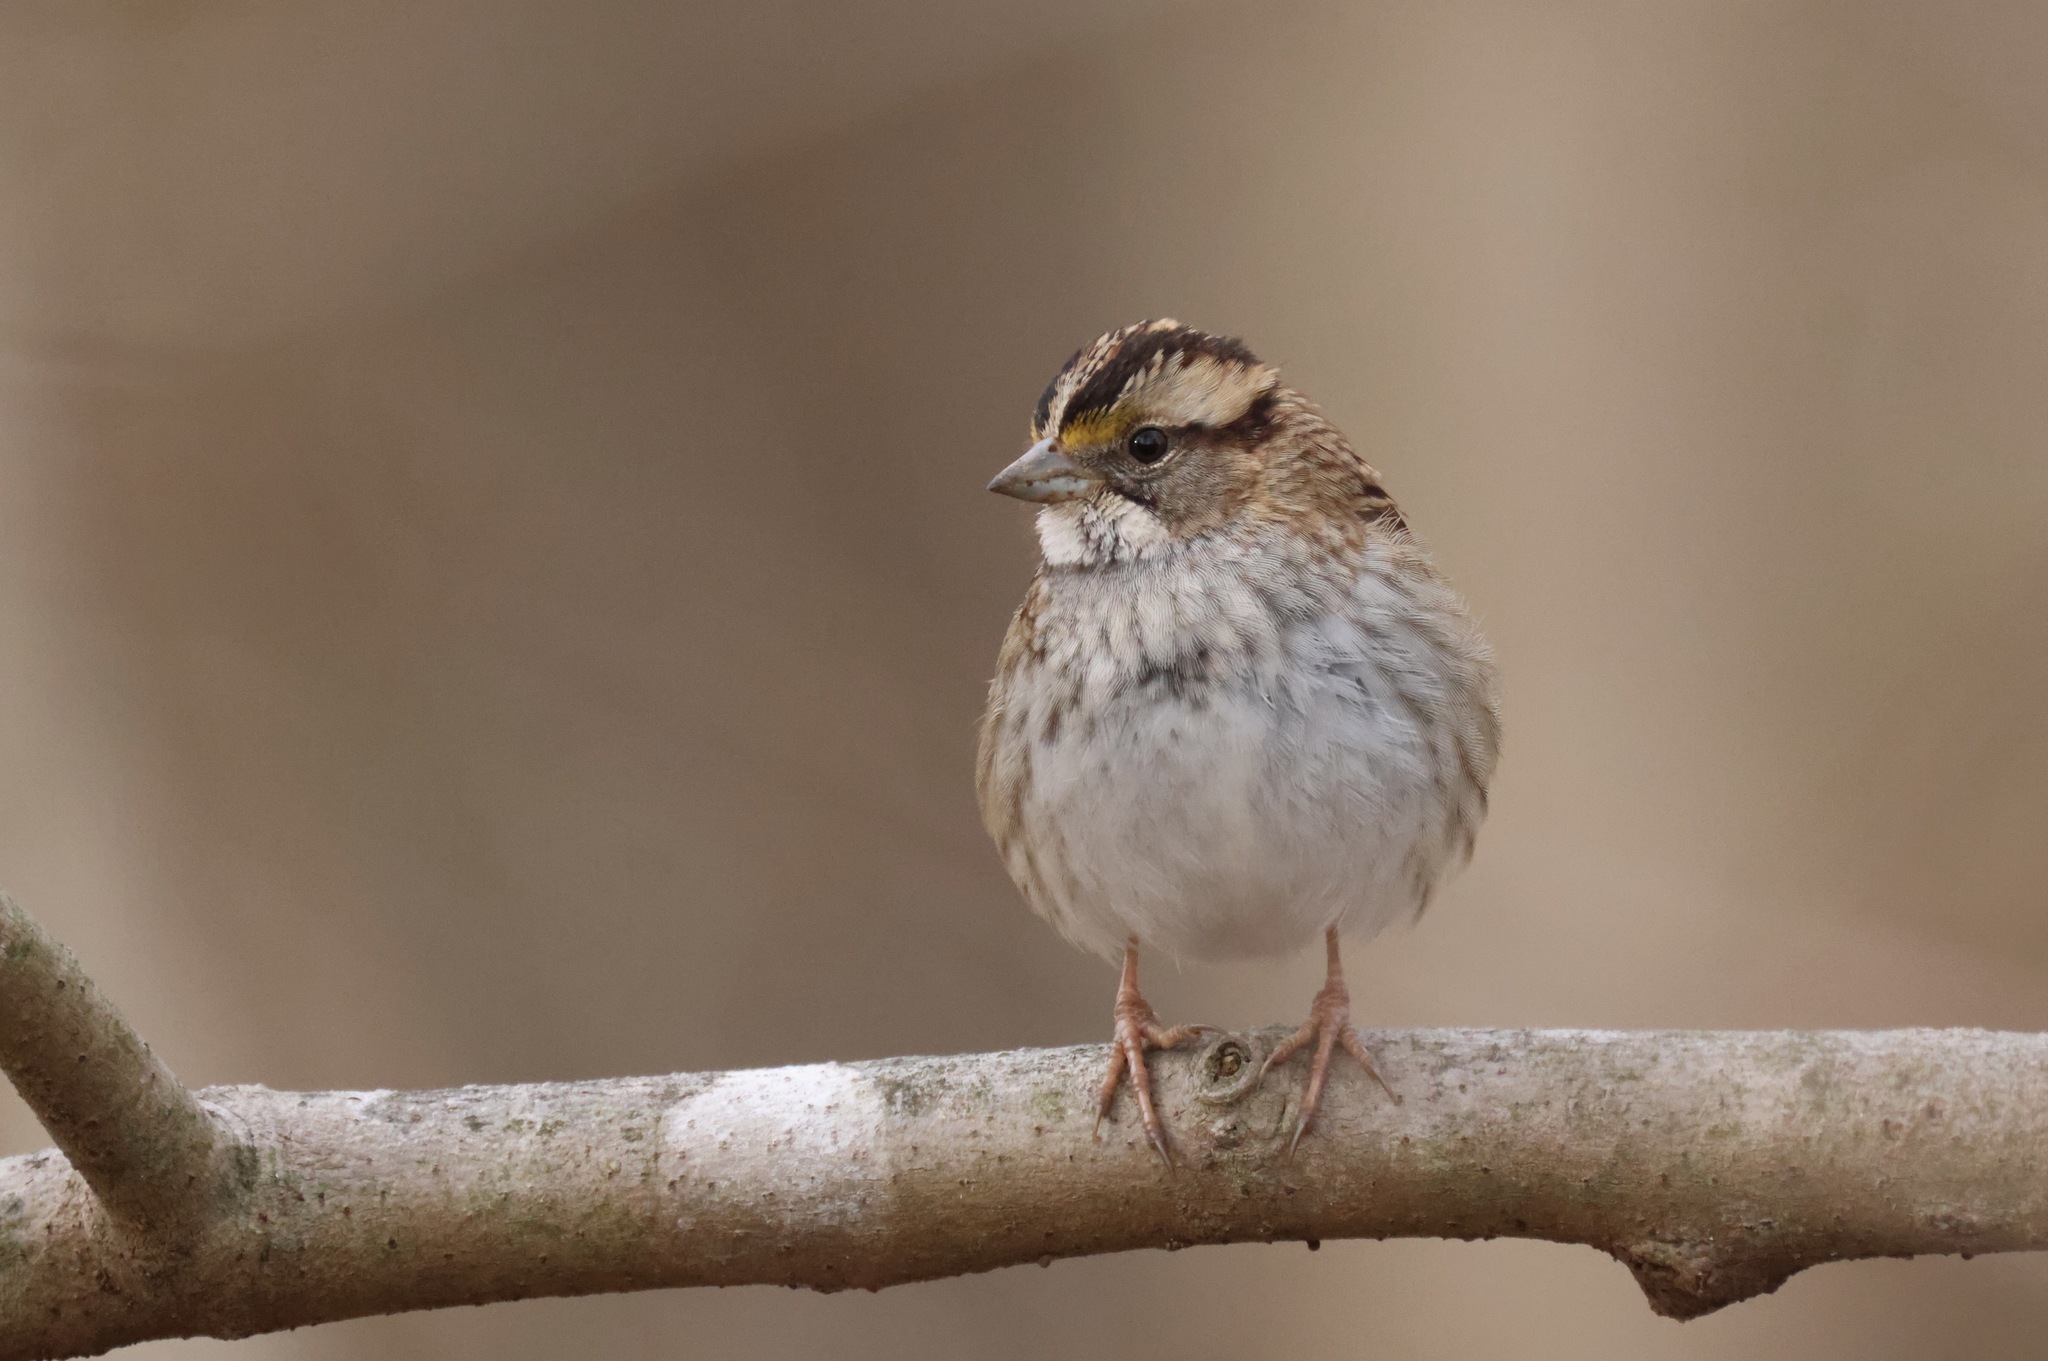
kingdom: Animalia
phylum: Chordata
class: Aves
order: Passeriformes
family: Passerellidae
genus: Zonotrichia
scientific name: Zonotrichia albicollis
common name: White-throated sparrow
